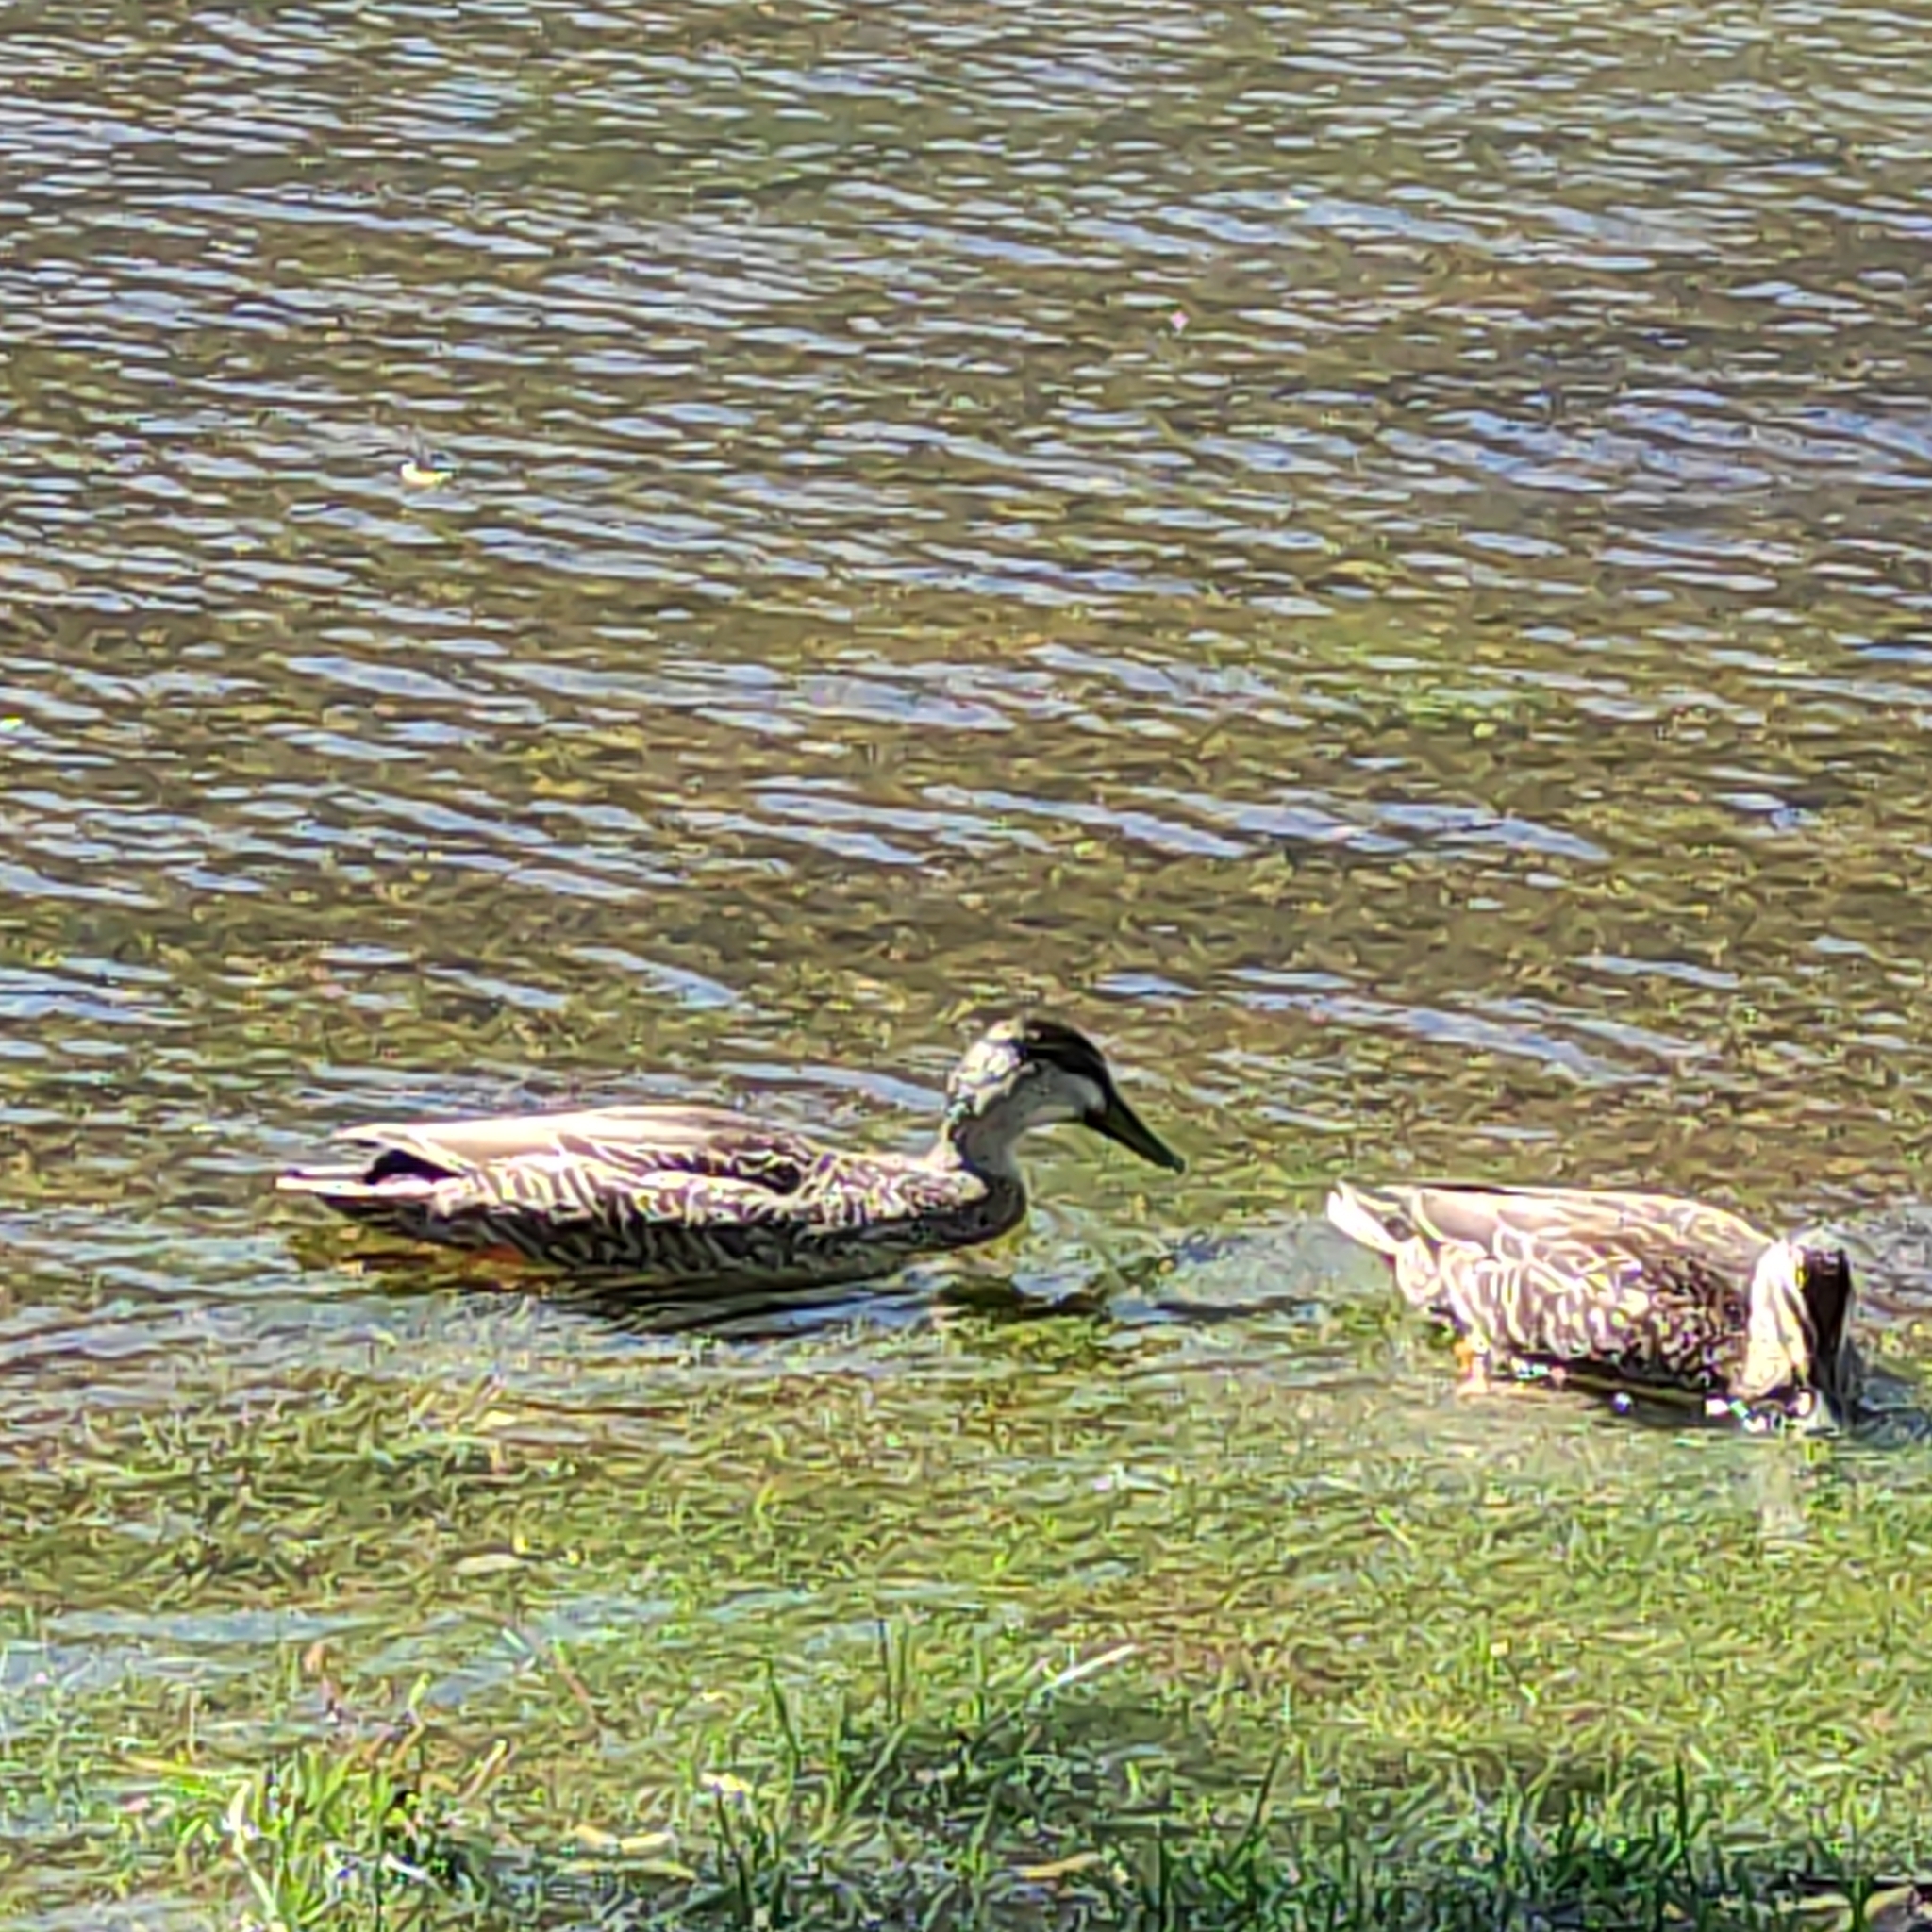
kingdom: Animalia
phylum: Chordata
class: Aves
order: Anseriformes
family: Anatidae
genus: Anas
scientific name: Anas
